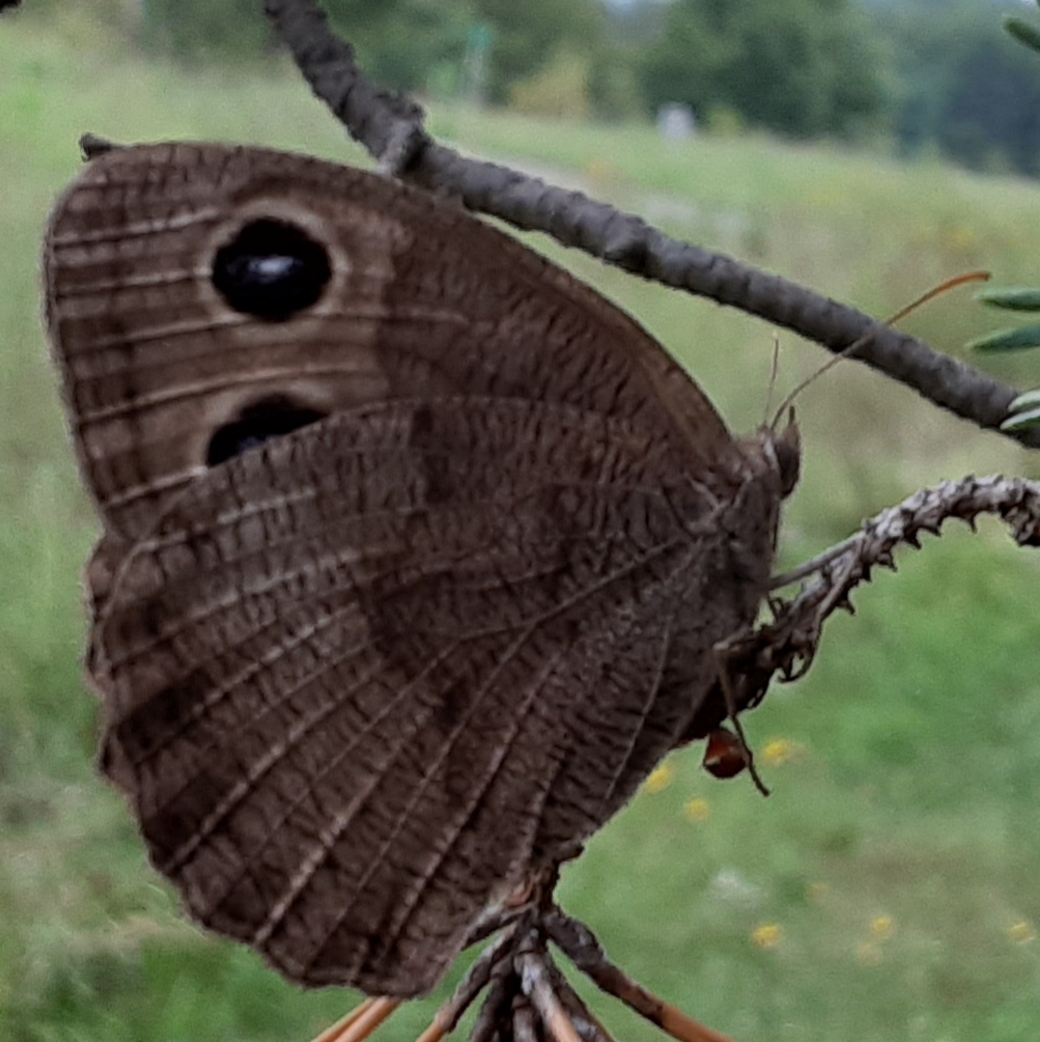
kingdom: Animalia
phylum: Arthropoda
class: Insecta
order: Lepidoptera
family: Nymphalidae
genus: Cercyonis
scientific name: Cercyonis pegala
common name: Common wood-nymph
